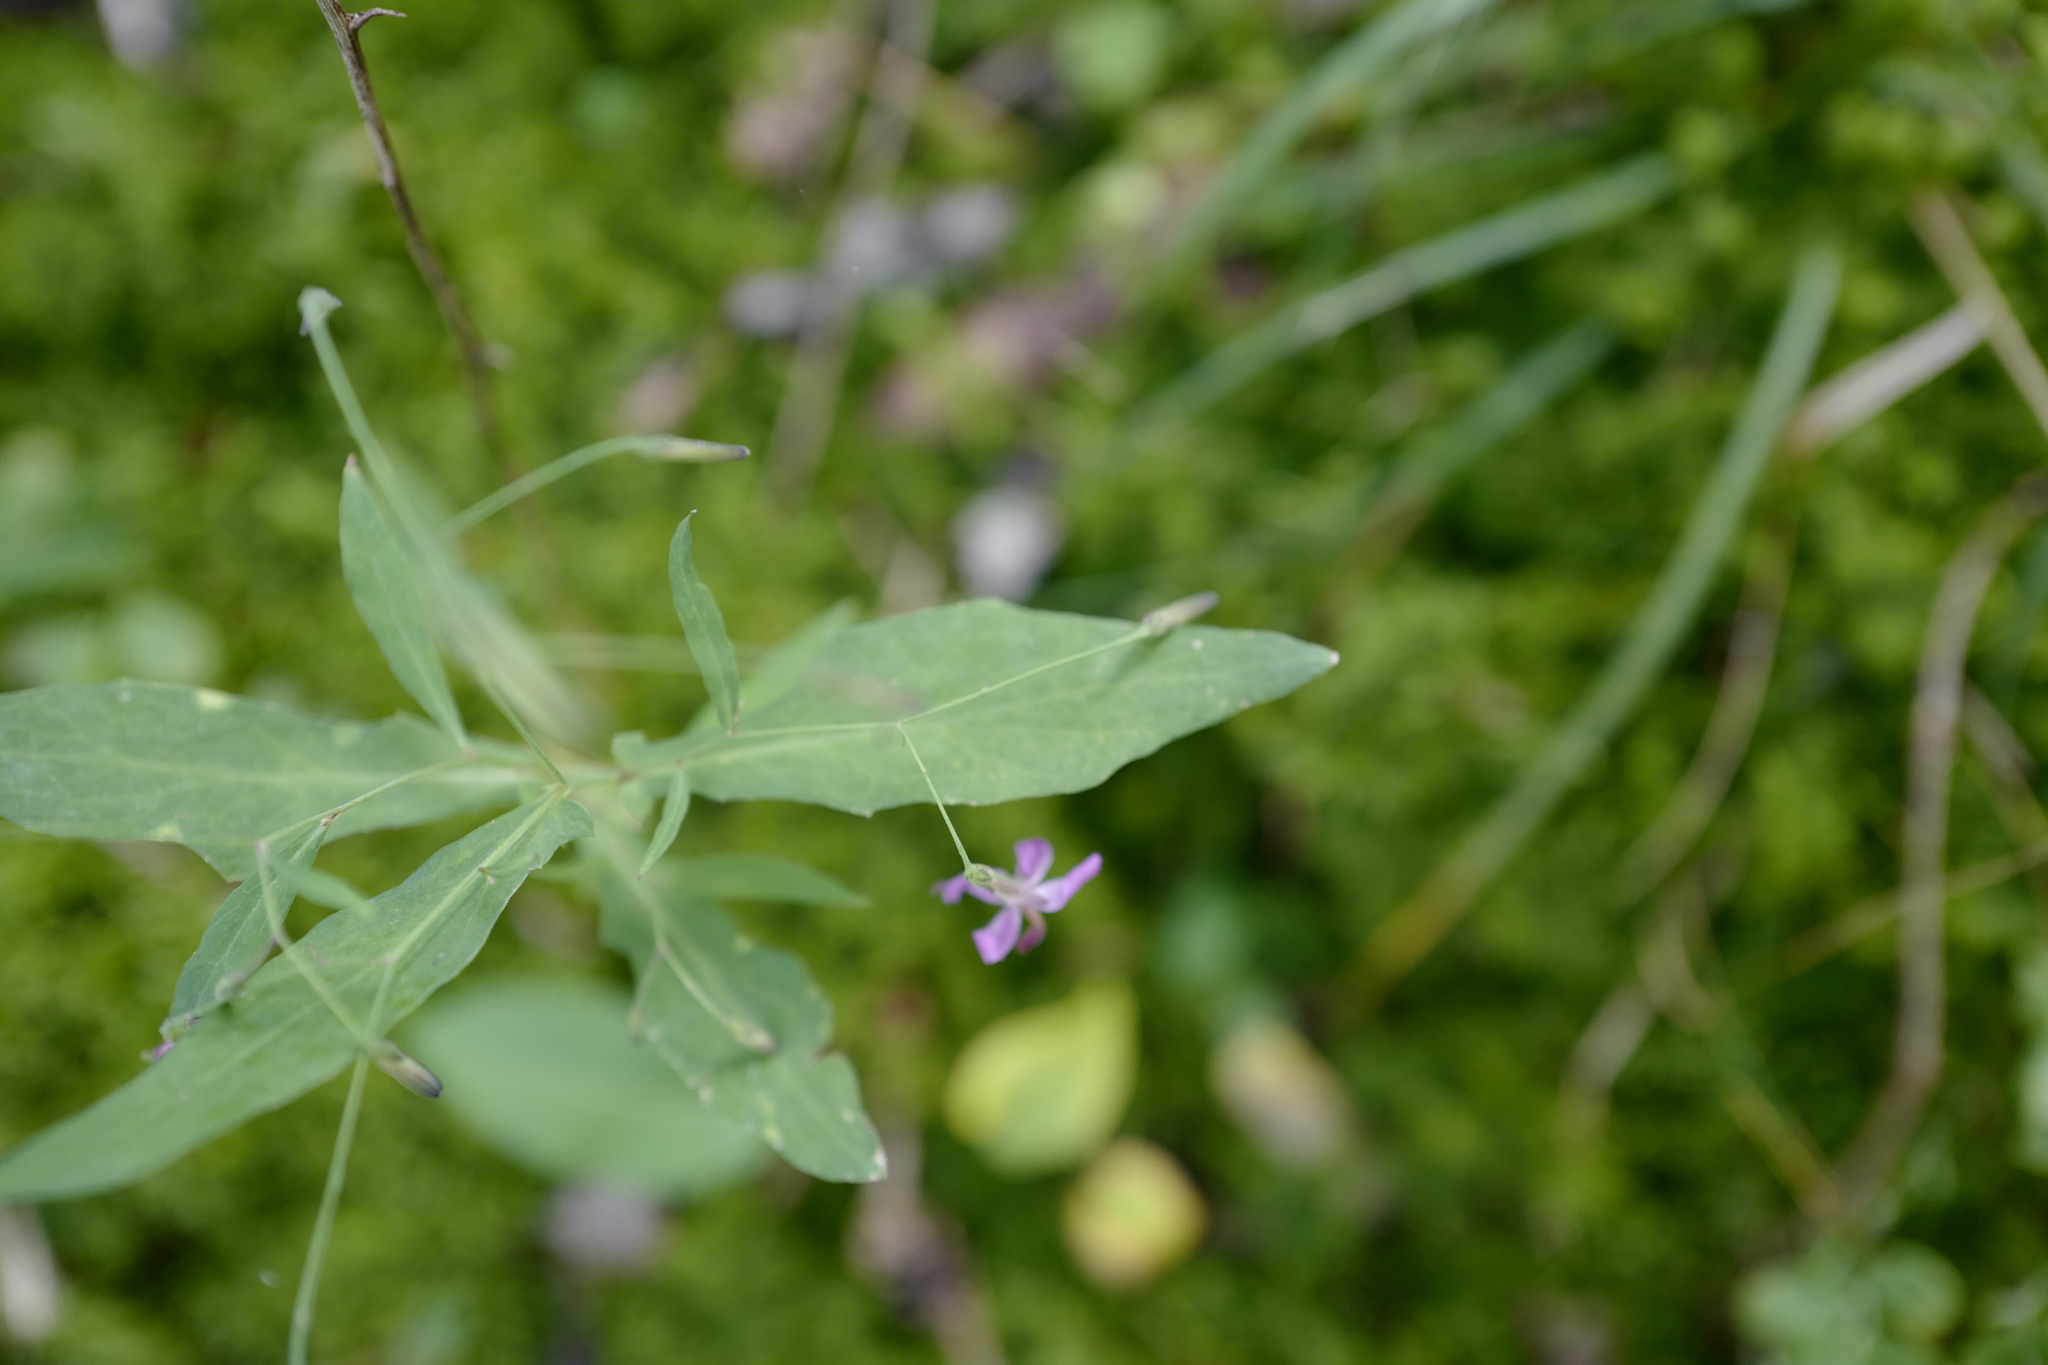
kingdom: Plantae
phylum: Tracheophyta
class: Magnoliopsida
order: Asterales
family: Asteraceae
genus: Prenanthes
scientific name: Prenanthes purpurea
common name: Purple lettuce
